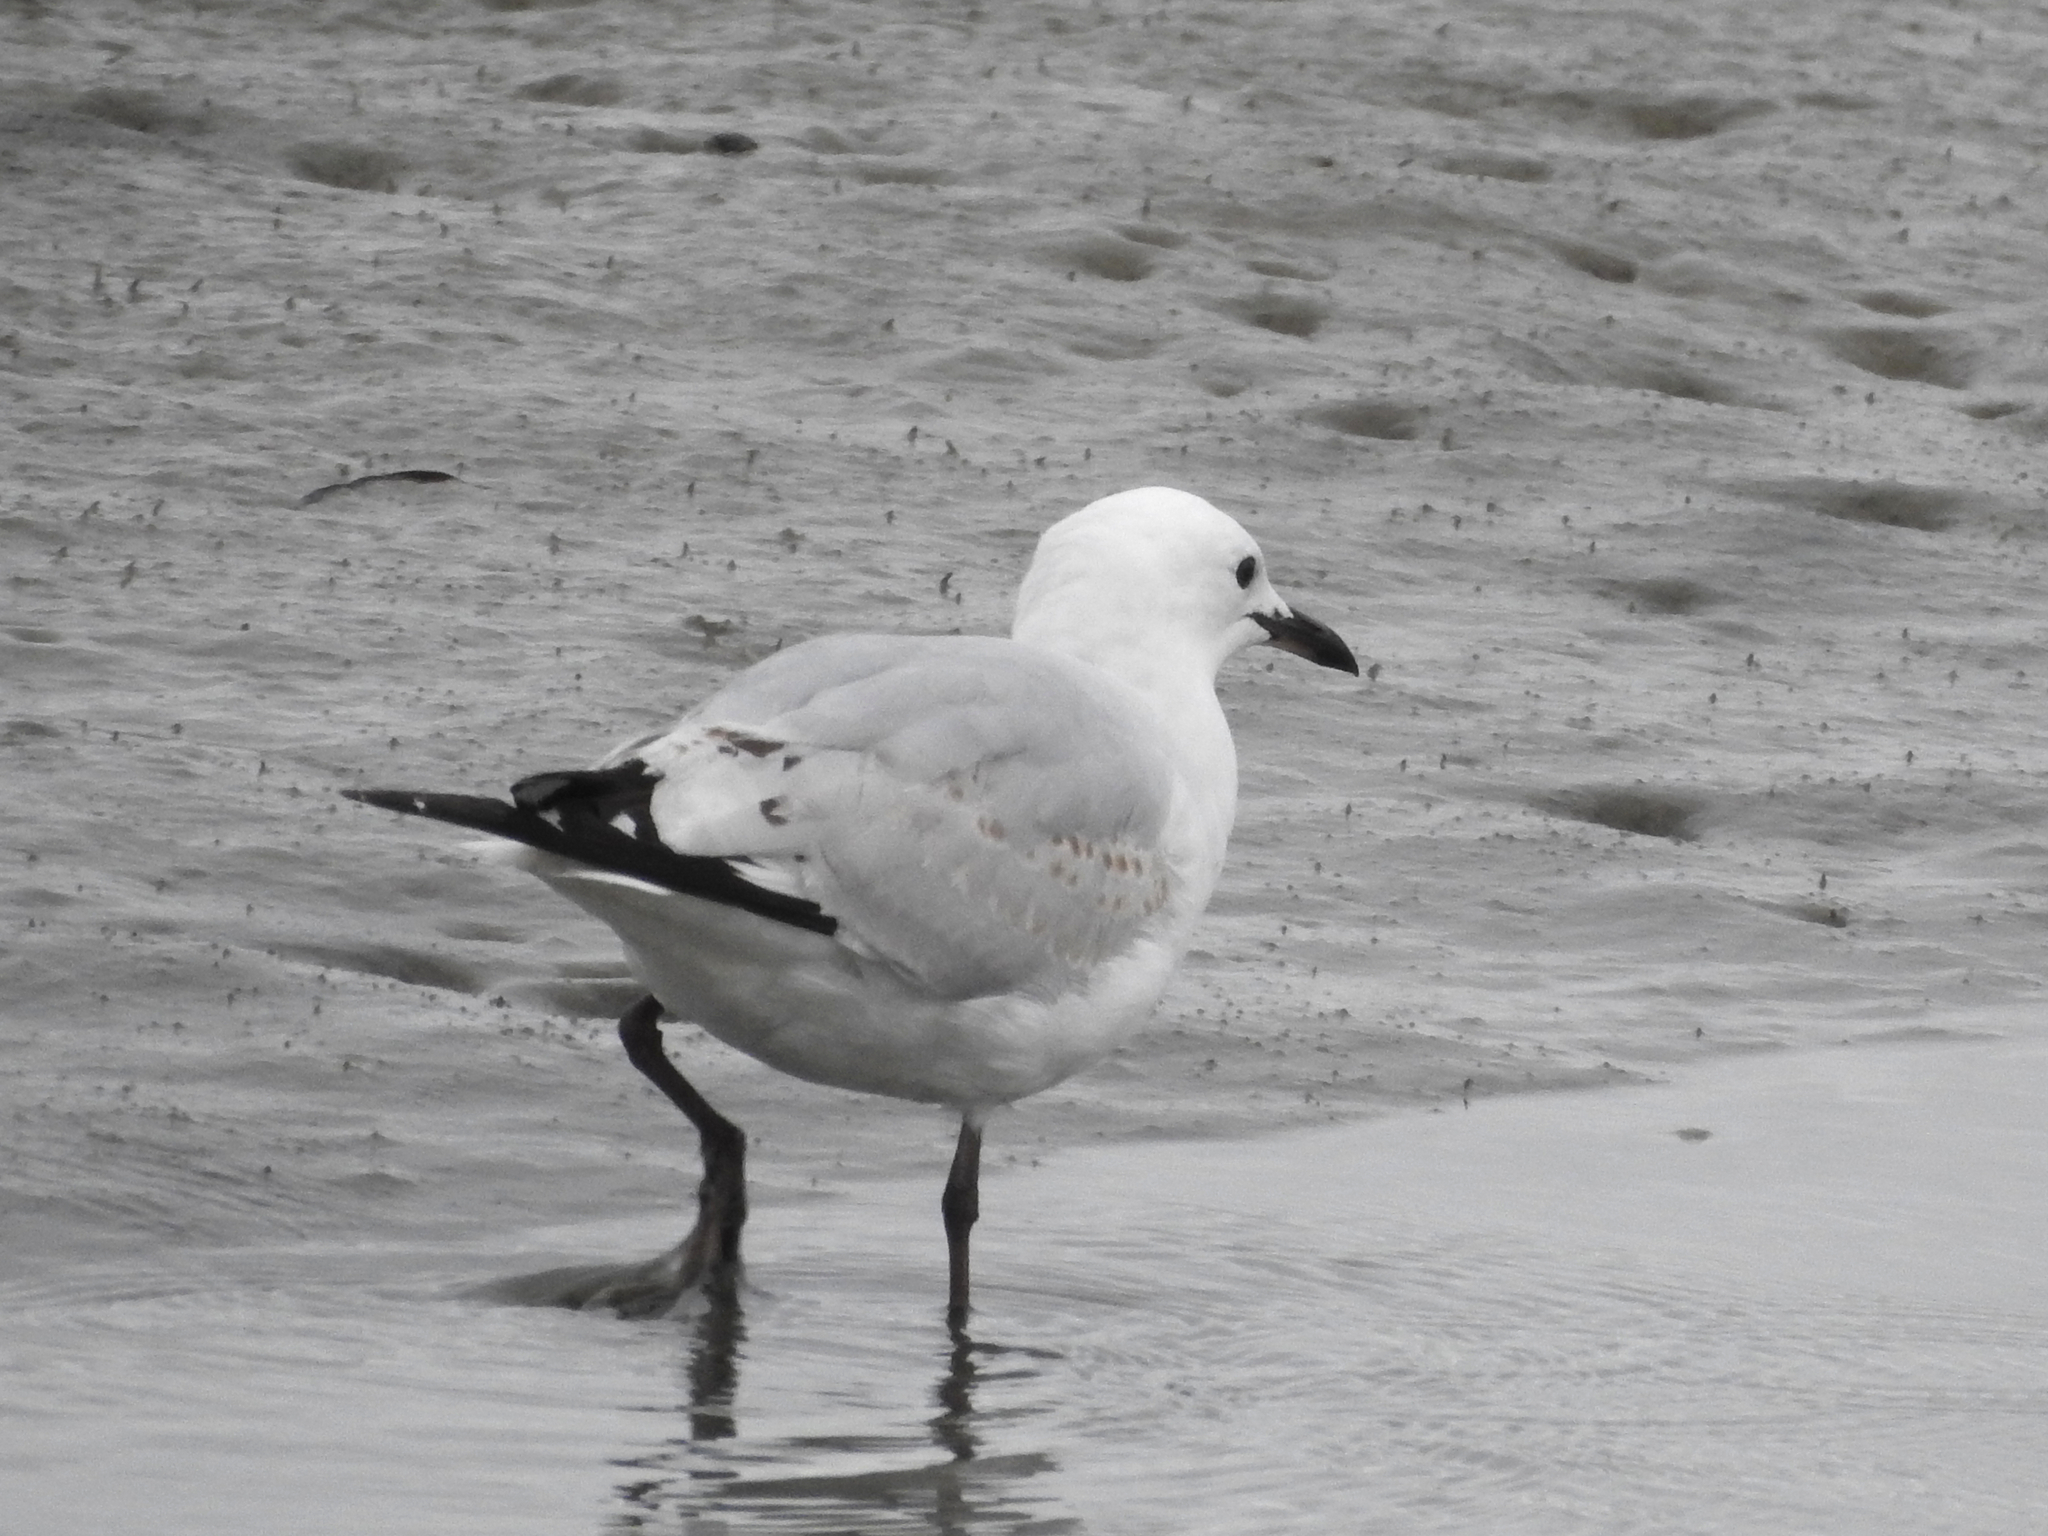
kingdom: Animalia
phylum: Chordata
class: Aves
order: Charadriiformes
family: Laridae
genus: Chroicocephalus
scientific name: Chroicocephalus novaehollandiae
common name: Silver gull
